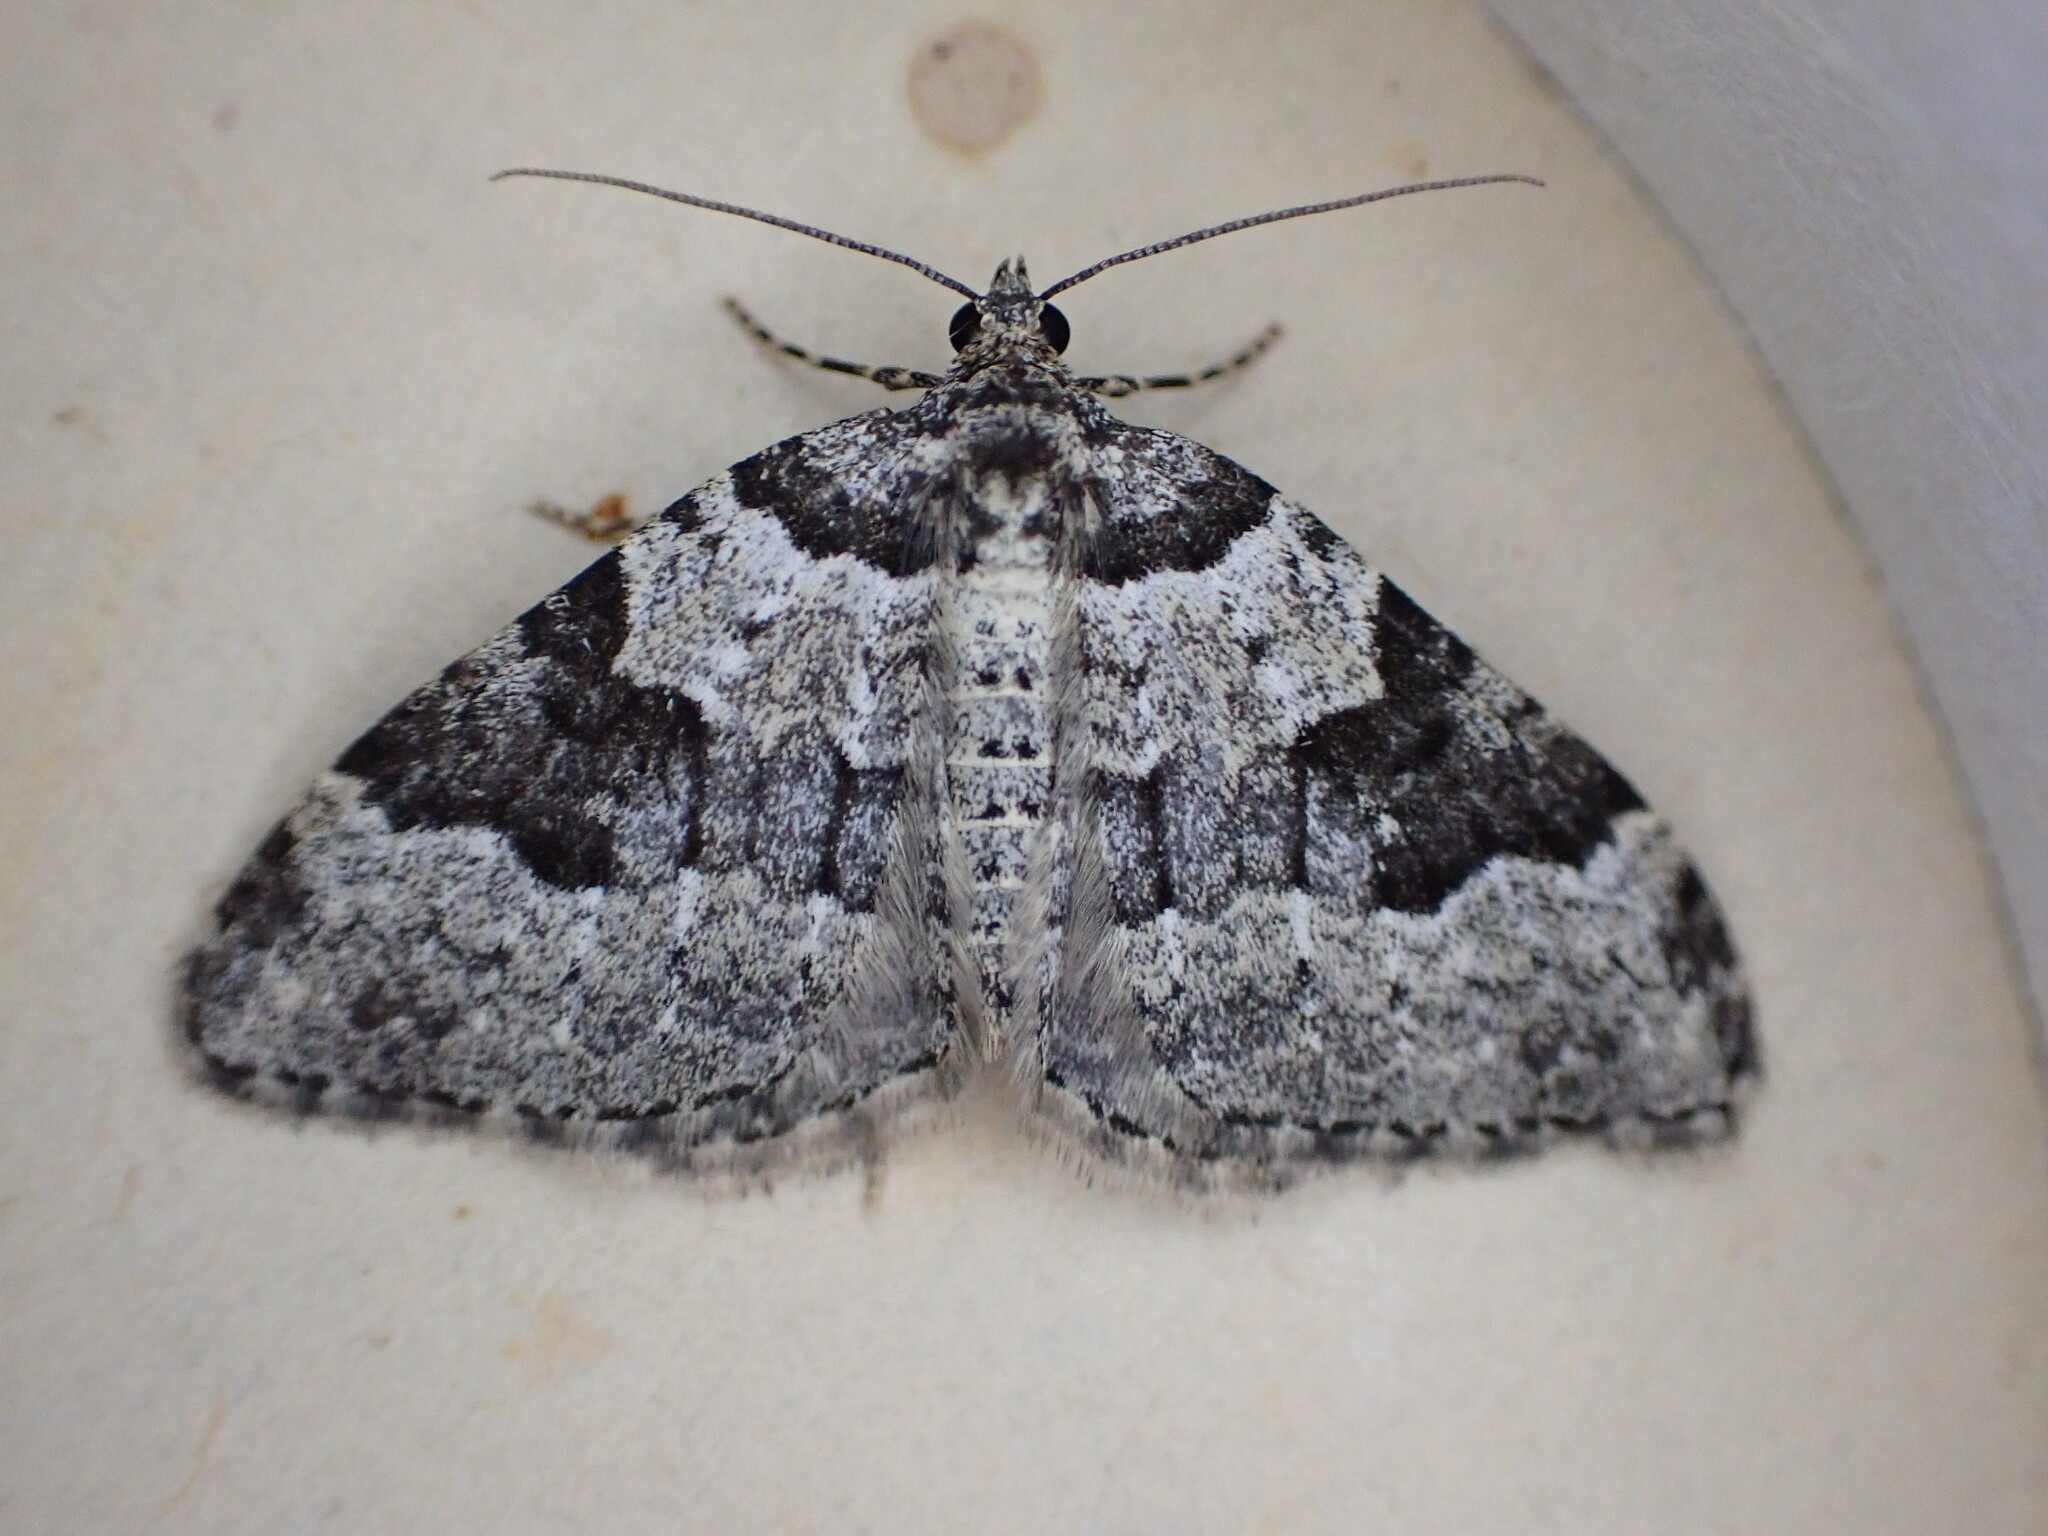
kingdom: Animalia
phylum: Arthropoda
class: Insecta
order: Lepidoptera
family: Geometridae
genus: Xanthorhoe
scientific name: Xanthorhoe fluctuata
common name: Garden carpet
